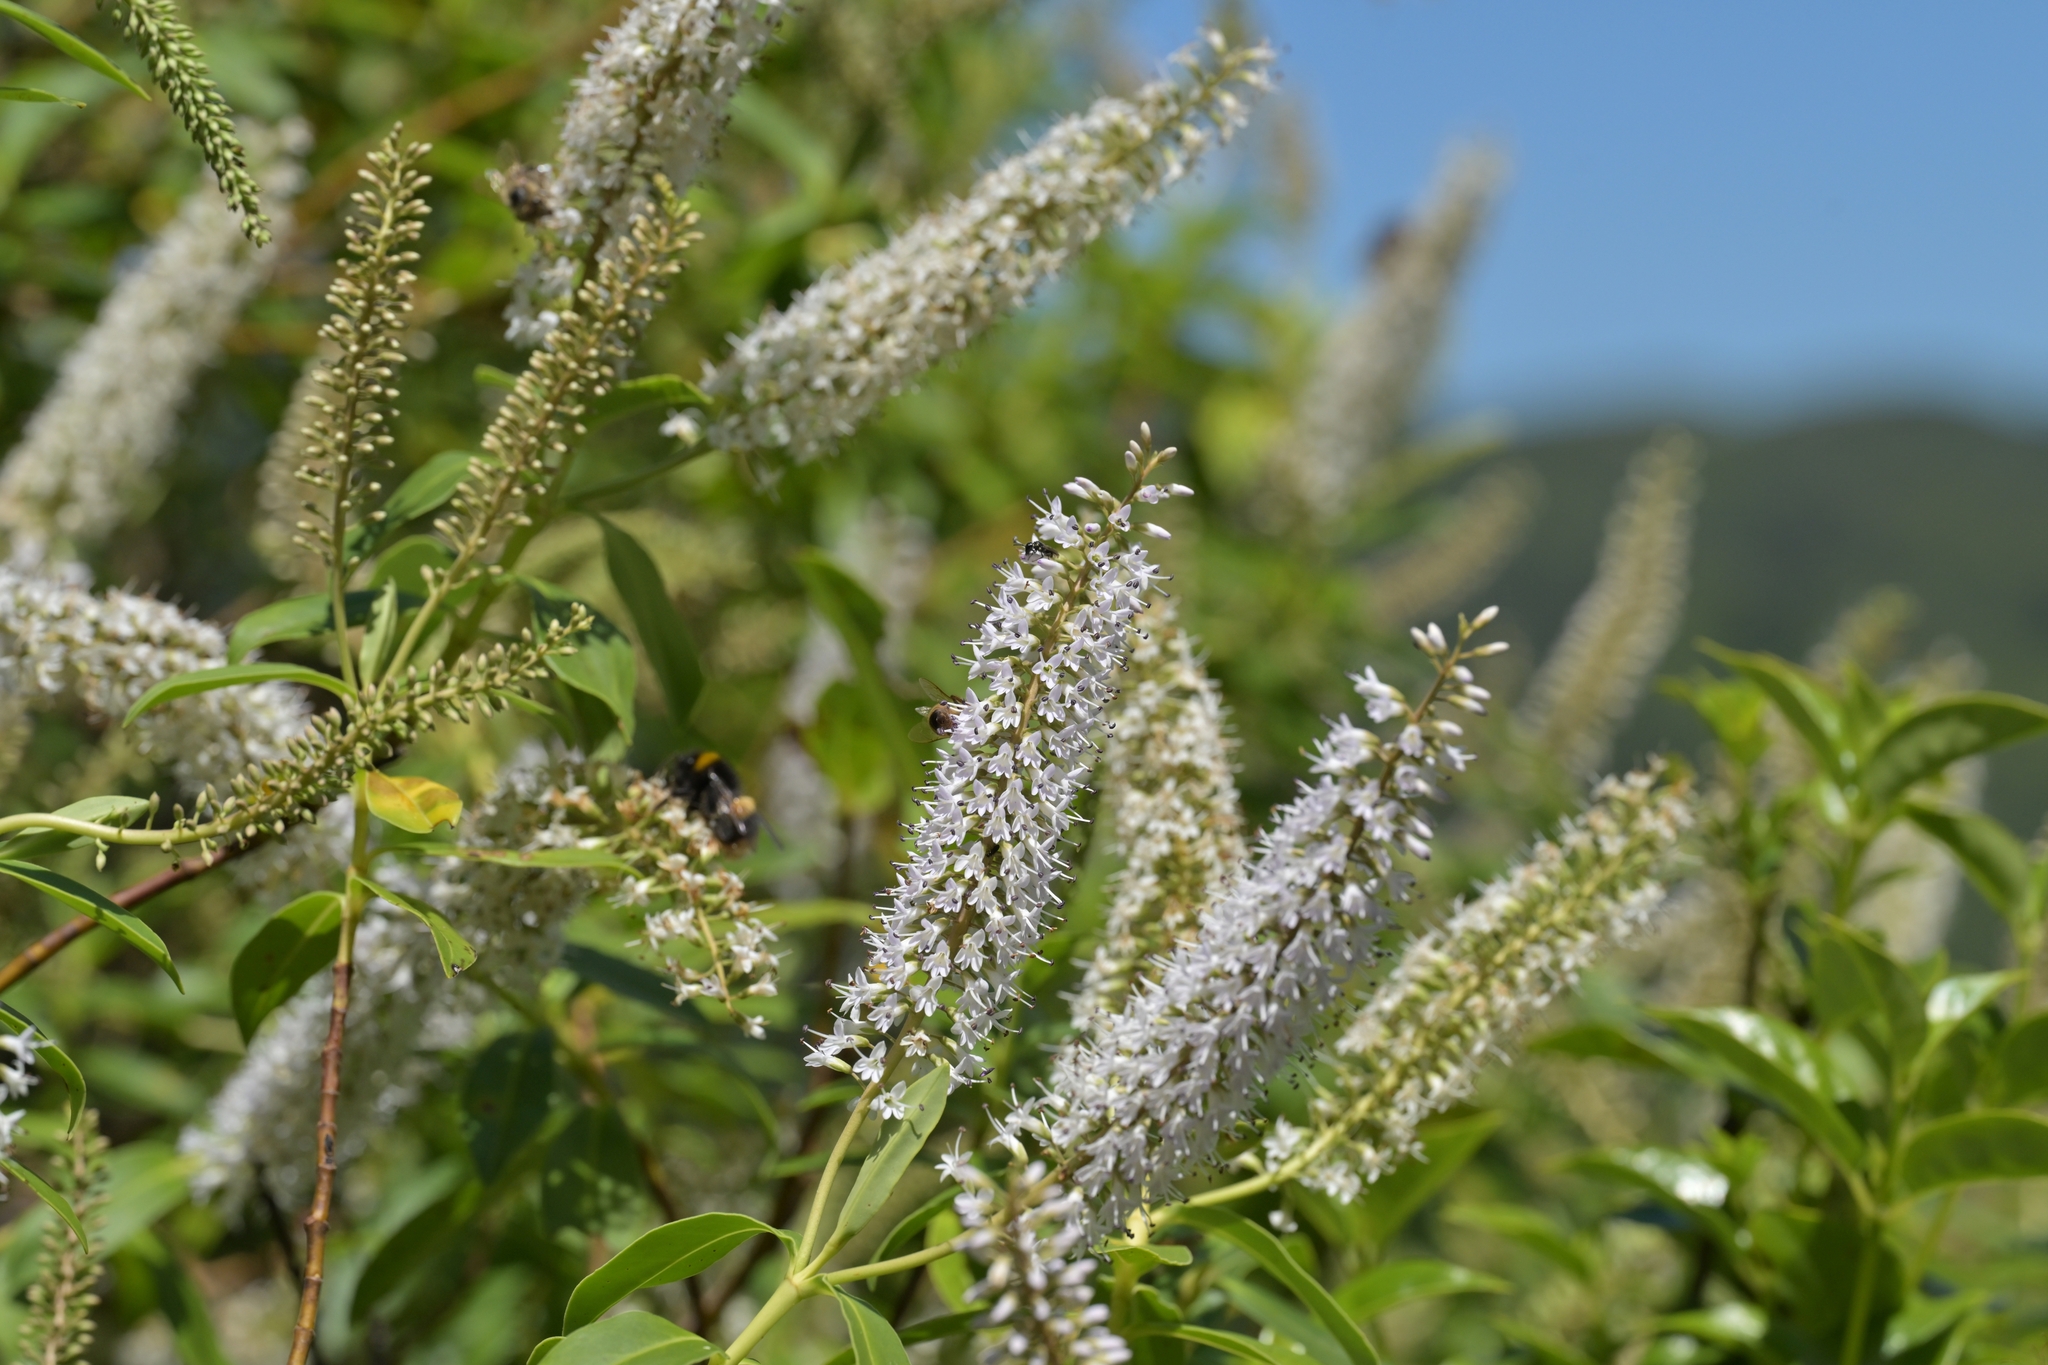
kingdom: Plantae
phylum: Tracheophyta
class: Magnoliopsida
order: Lamiales
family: Plantaginaceae
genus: Veronica
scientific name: Veronica stricta
